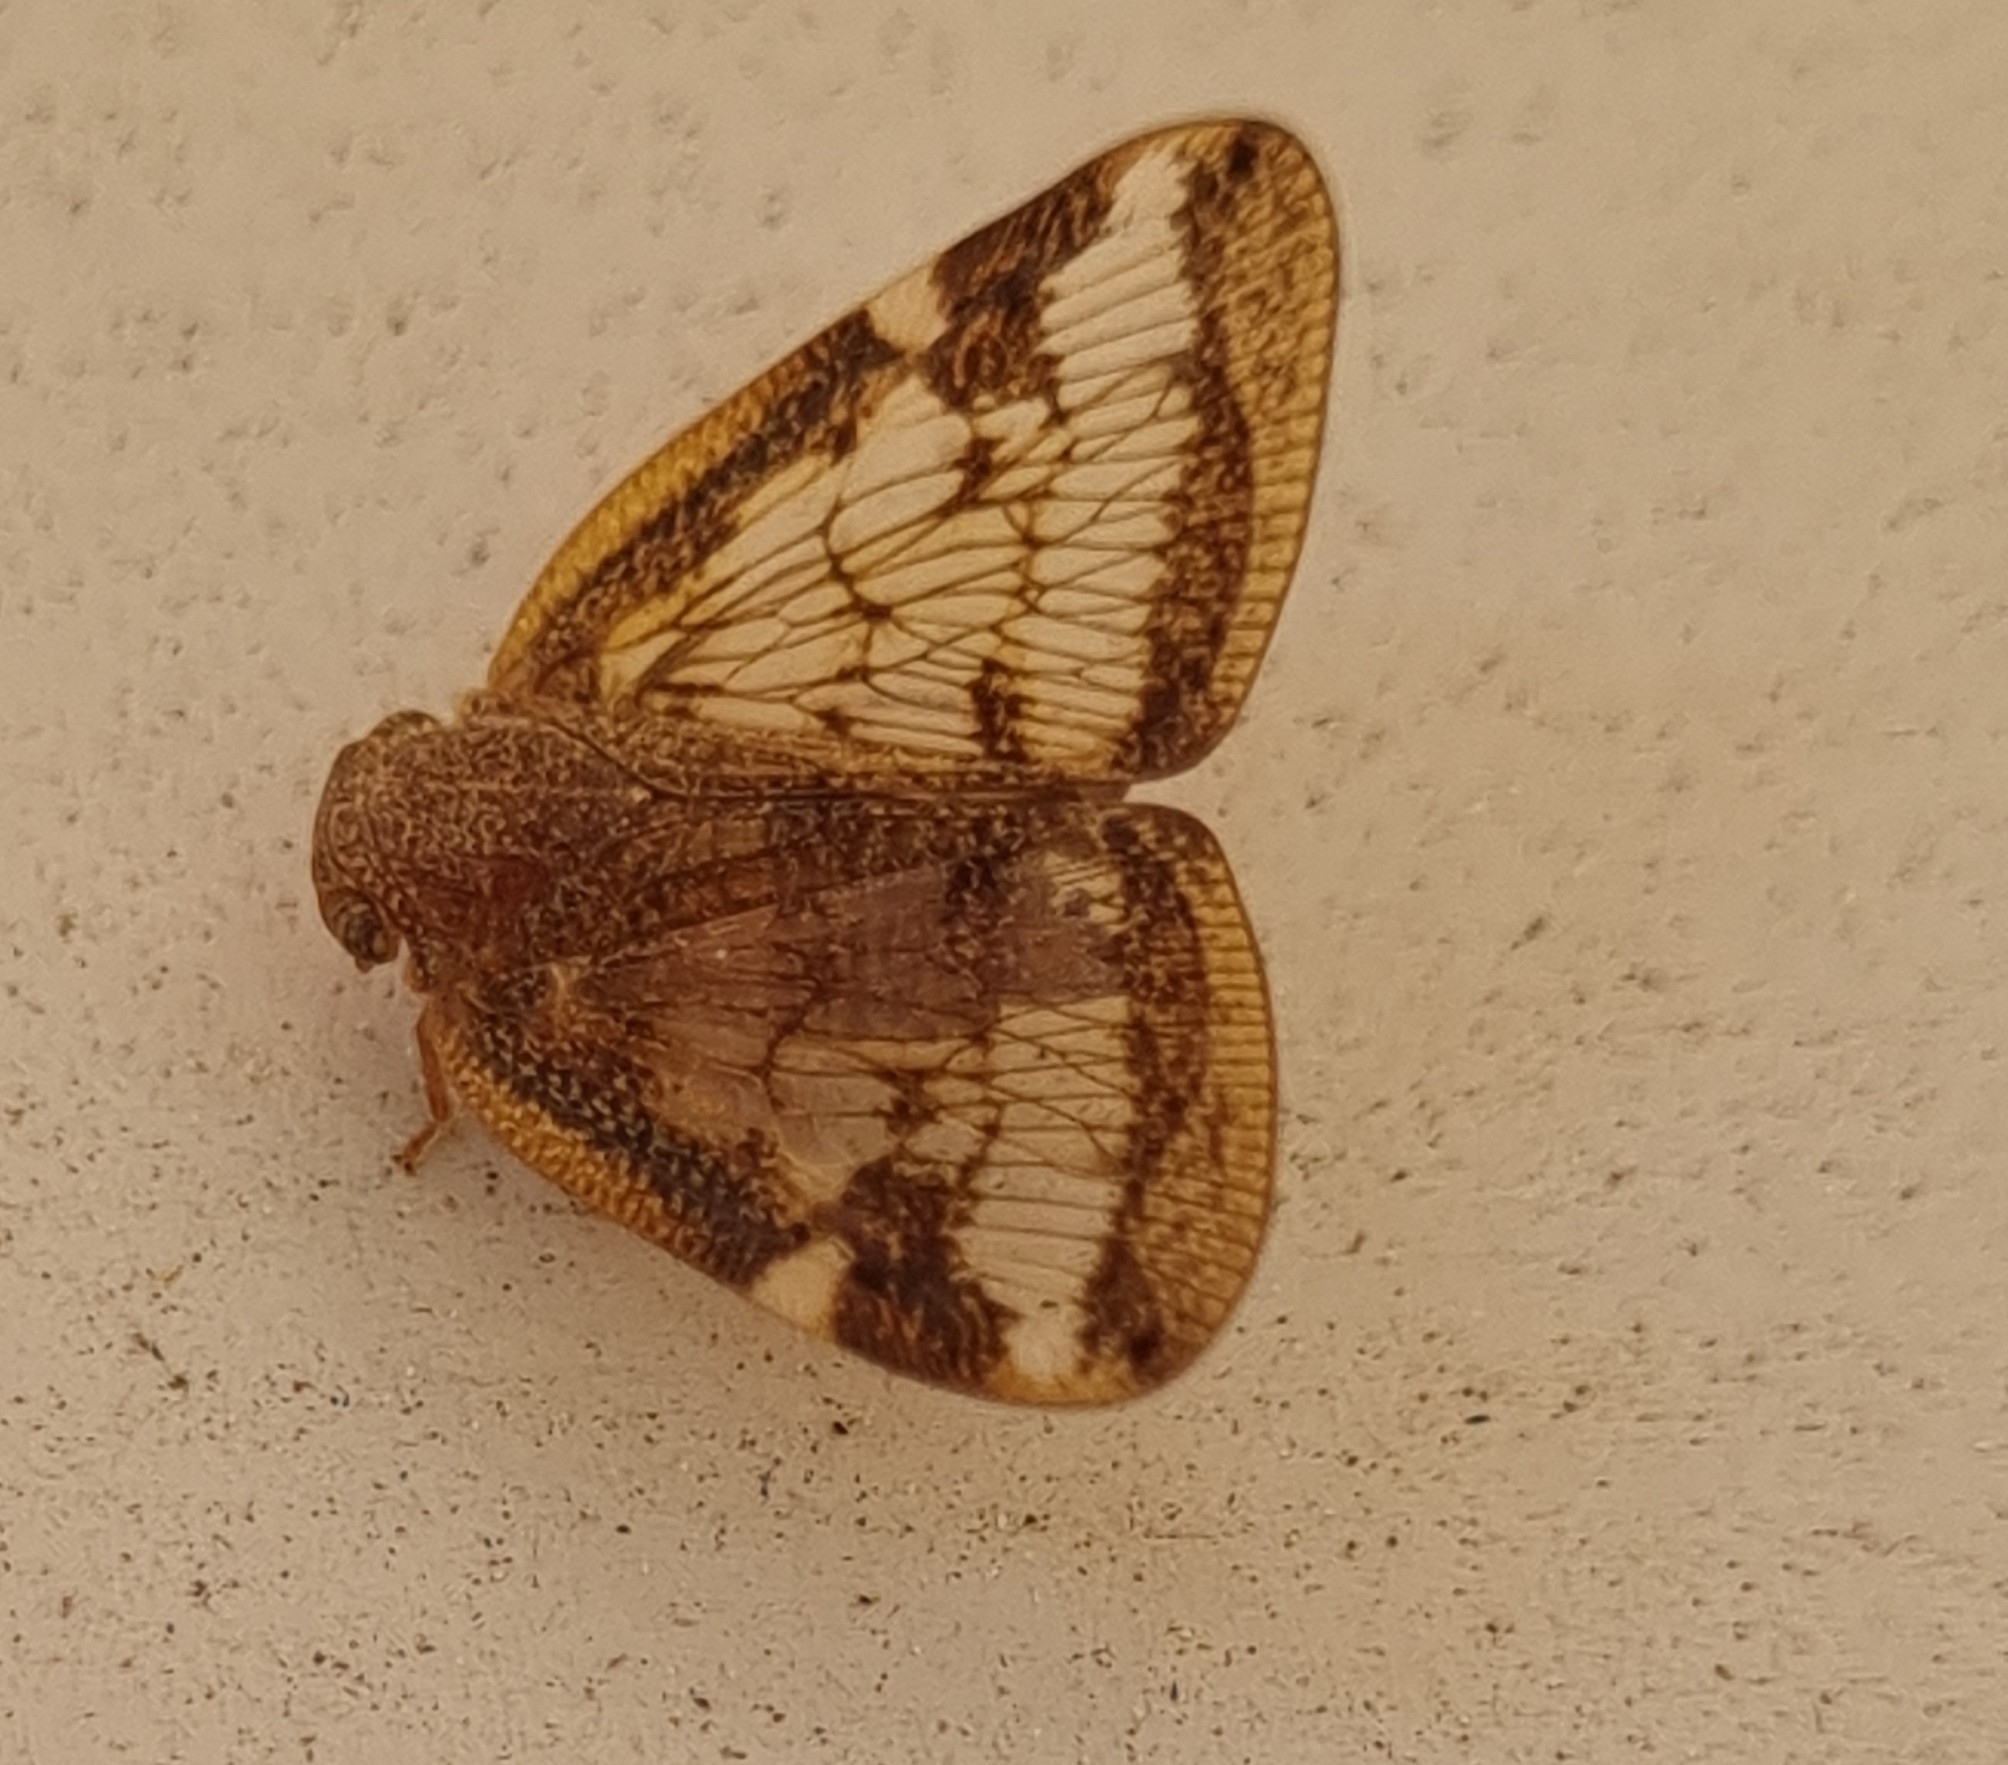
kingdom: Animalia
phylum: Arthropoda
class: Insecta
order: Hemiptera
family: Ricaniidae
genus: Scolypopa
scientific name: Scolypopa australis
